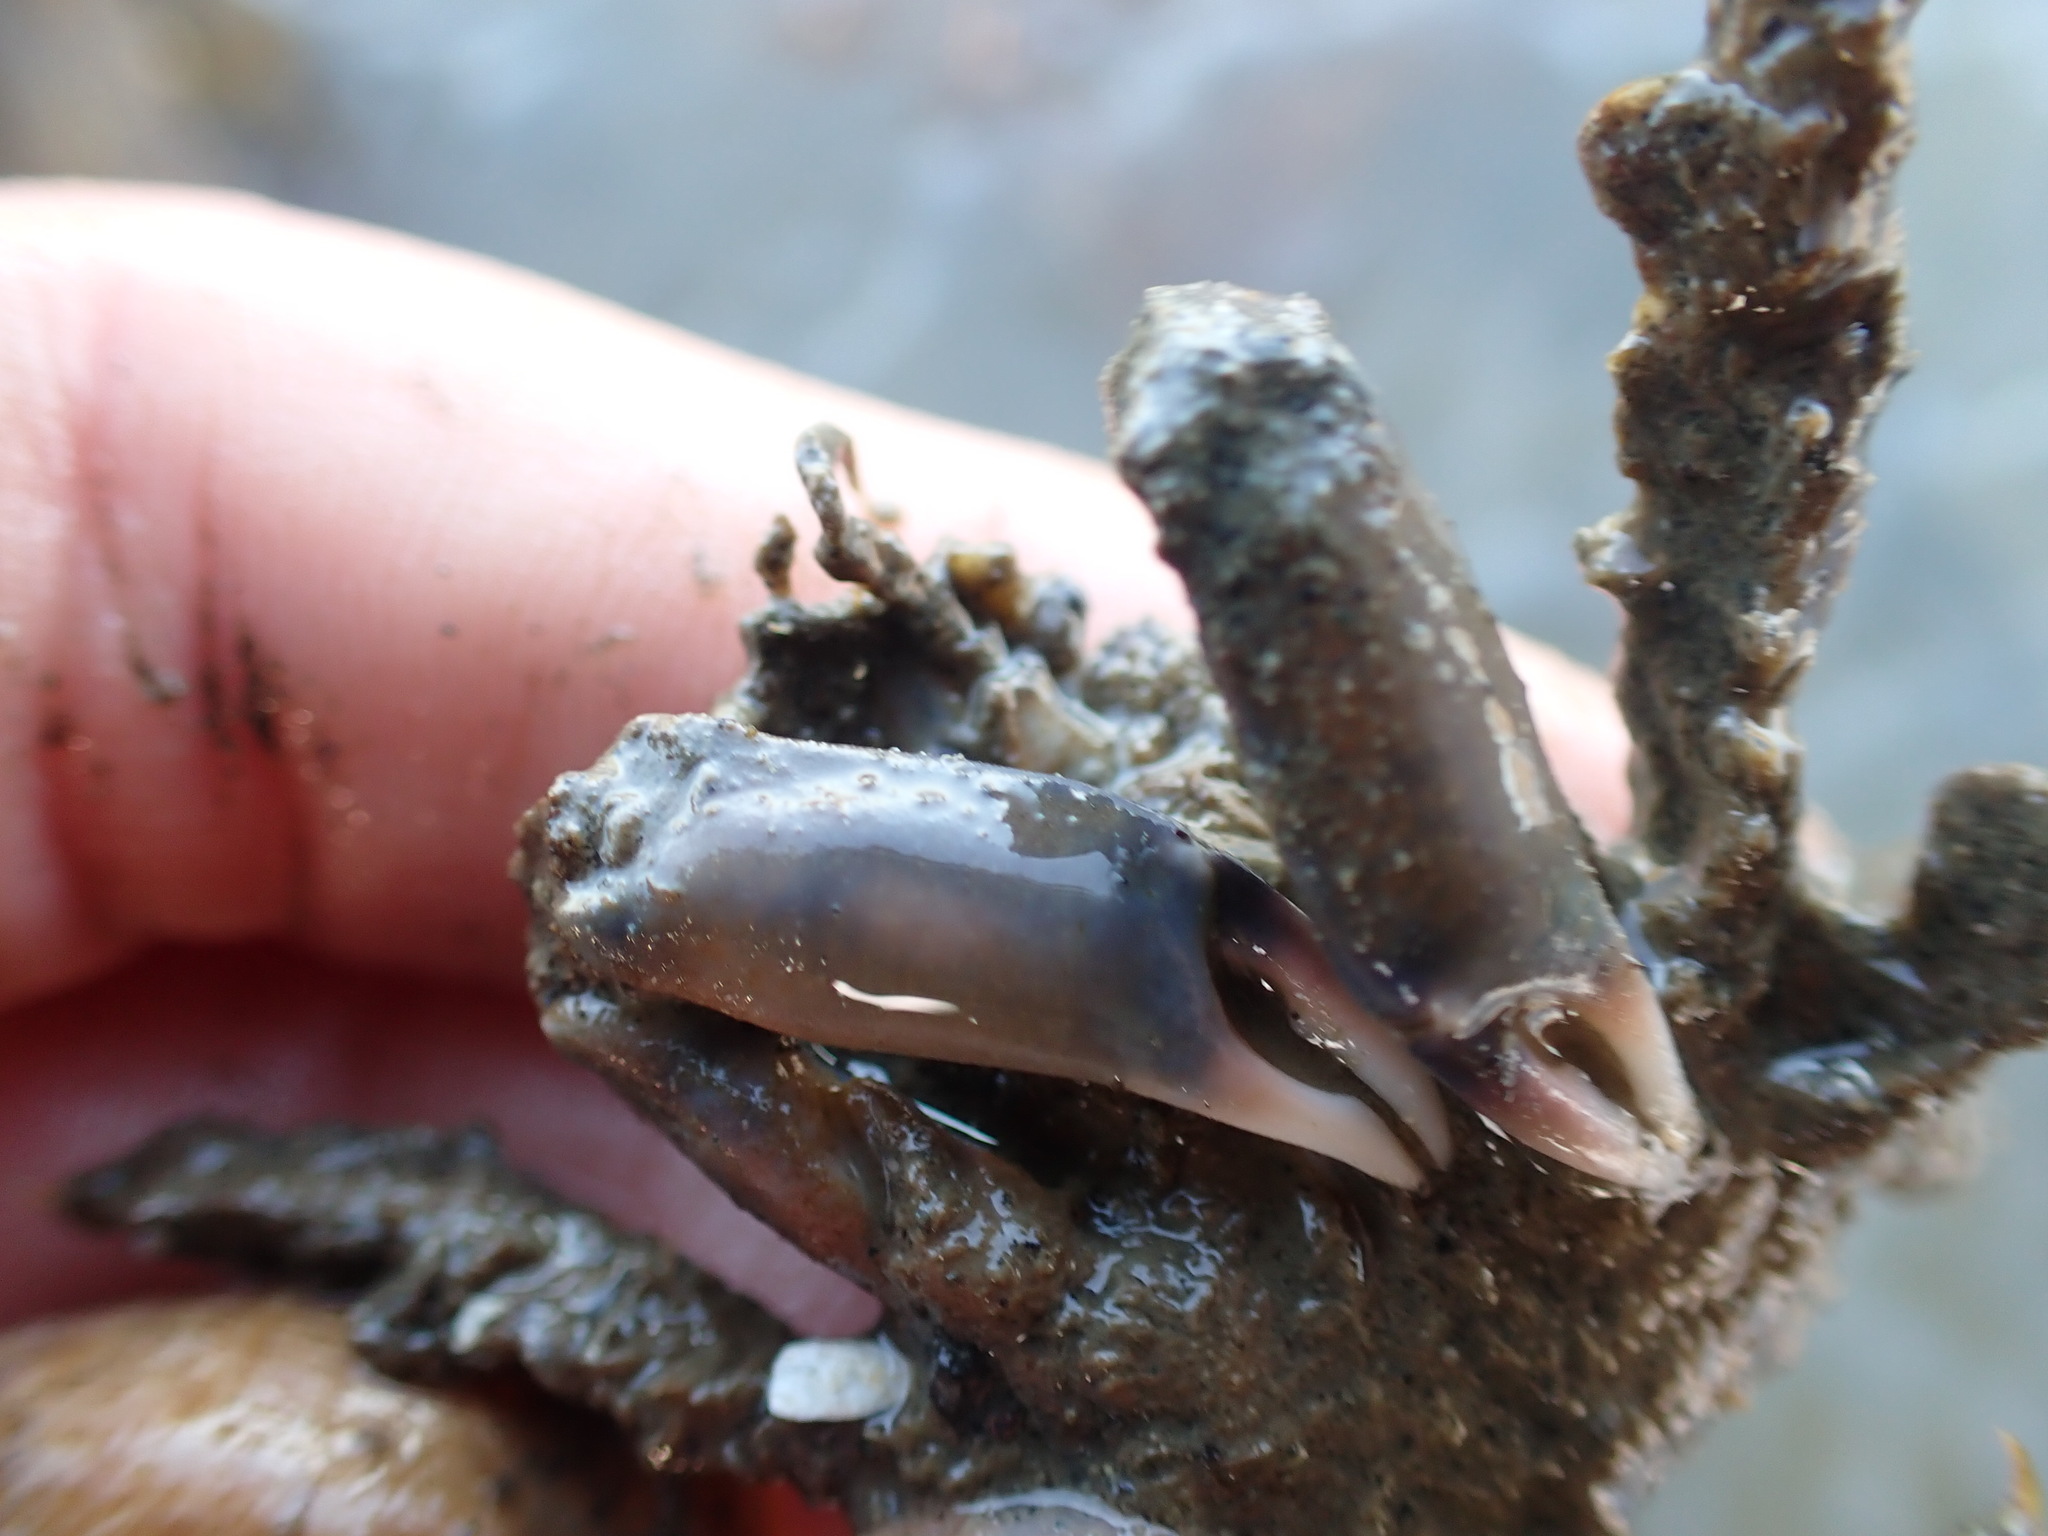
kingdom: Animalia
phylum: Arthropoda
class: Malacostraca
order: Decapoda
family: Majidae
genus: Notomithrax
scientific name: Notomithrax minor
